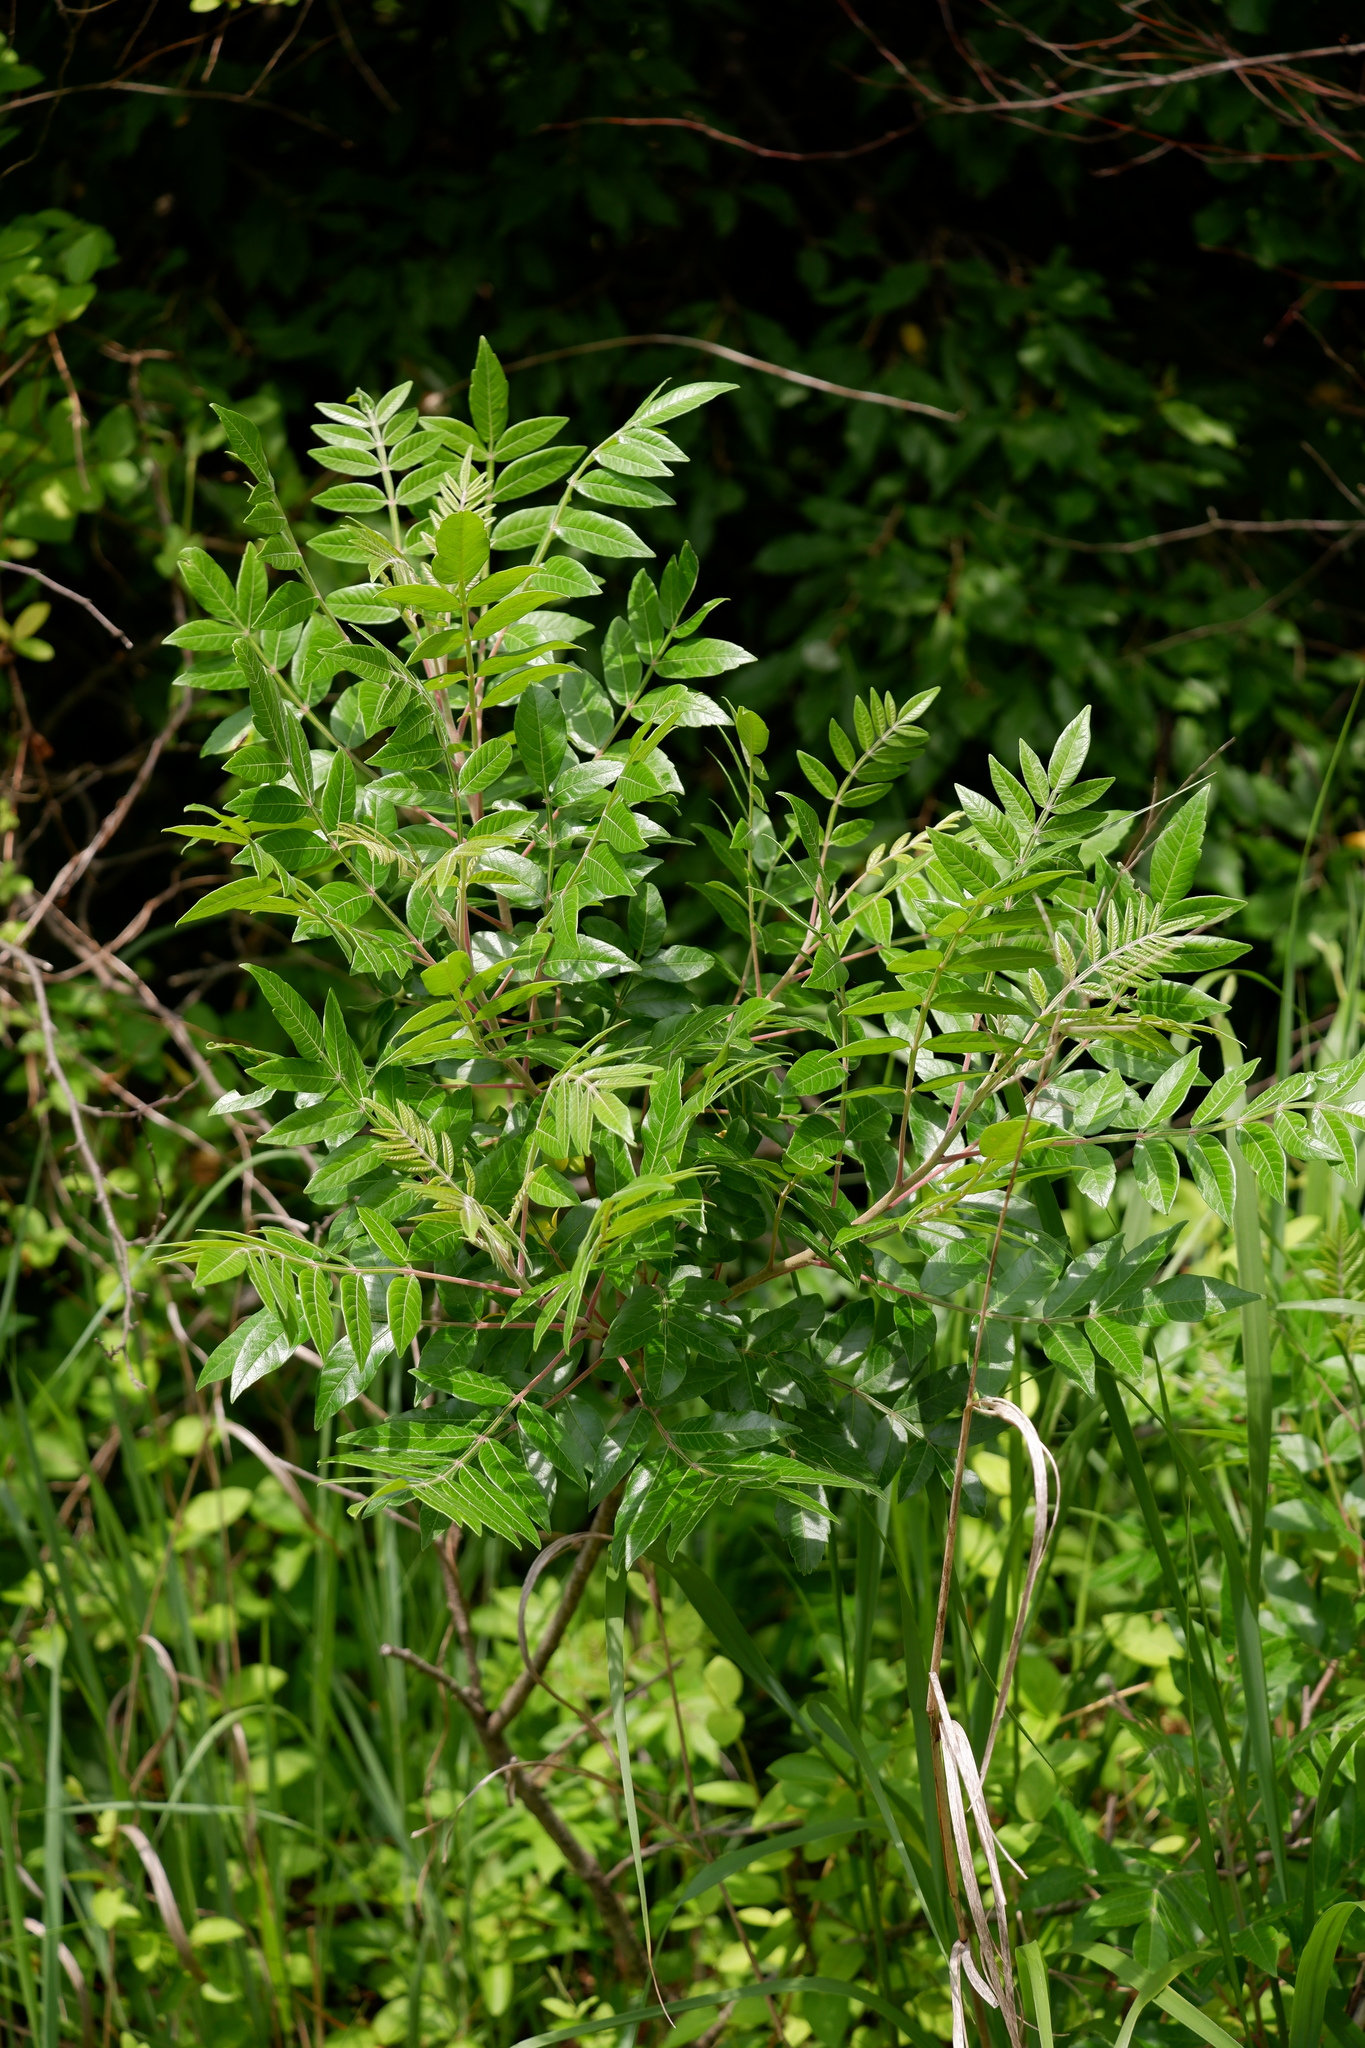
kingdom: Plantae
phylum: Tracheophyta
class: Magnoliopsida
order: Sapindales
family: Anacardiaceae
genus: Rhus
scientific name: Rhus copallina
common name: Shining sumac
